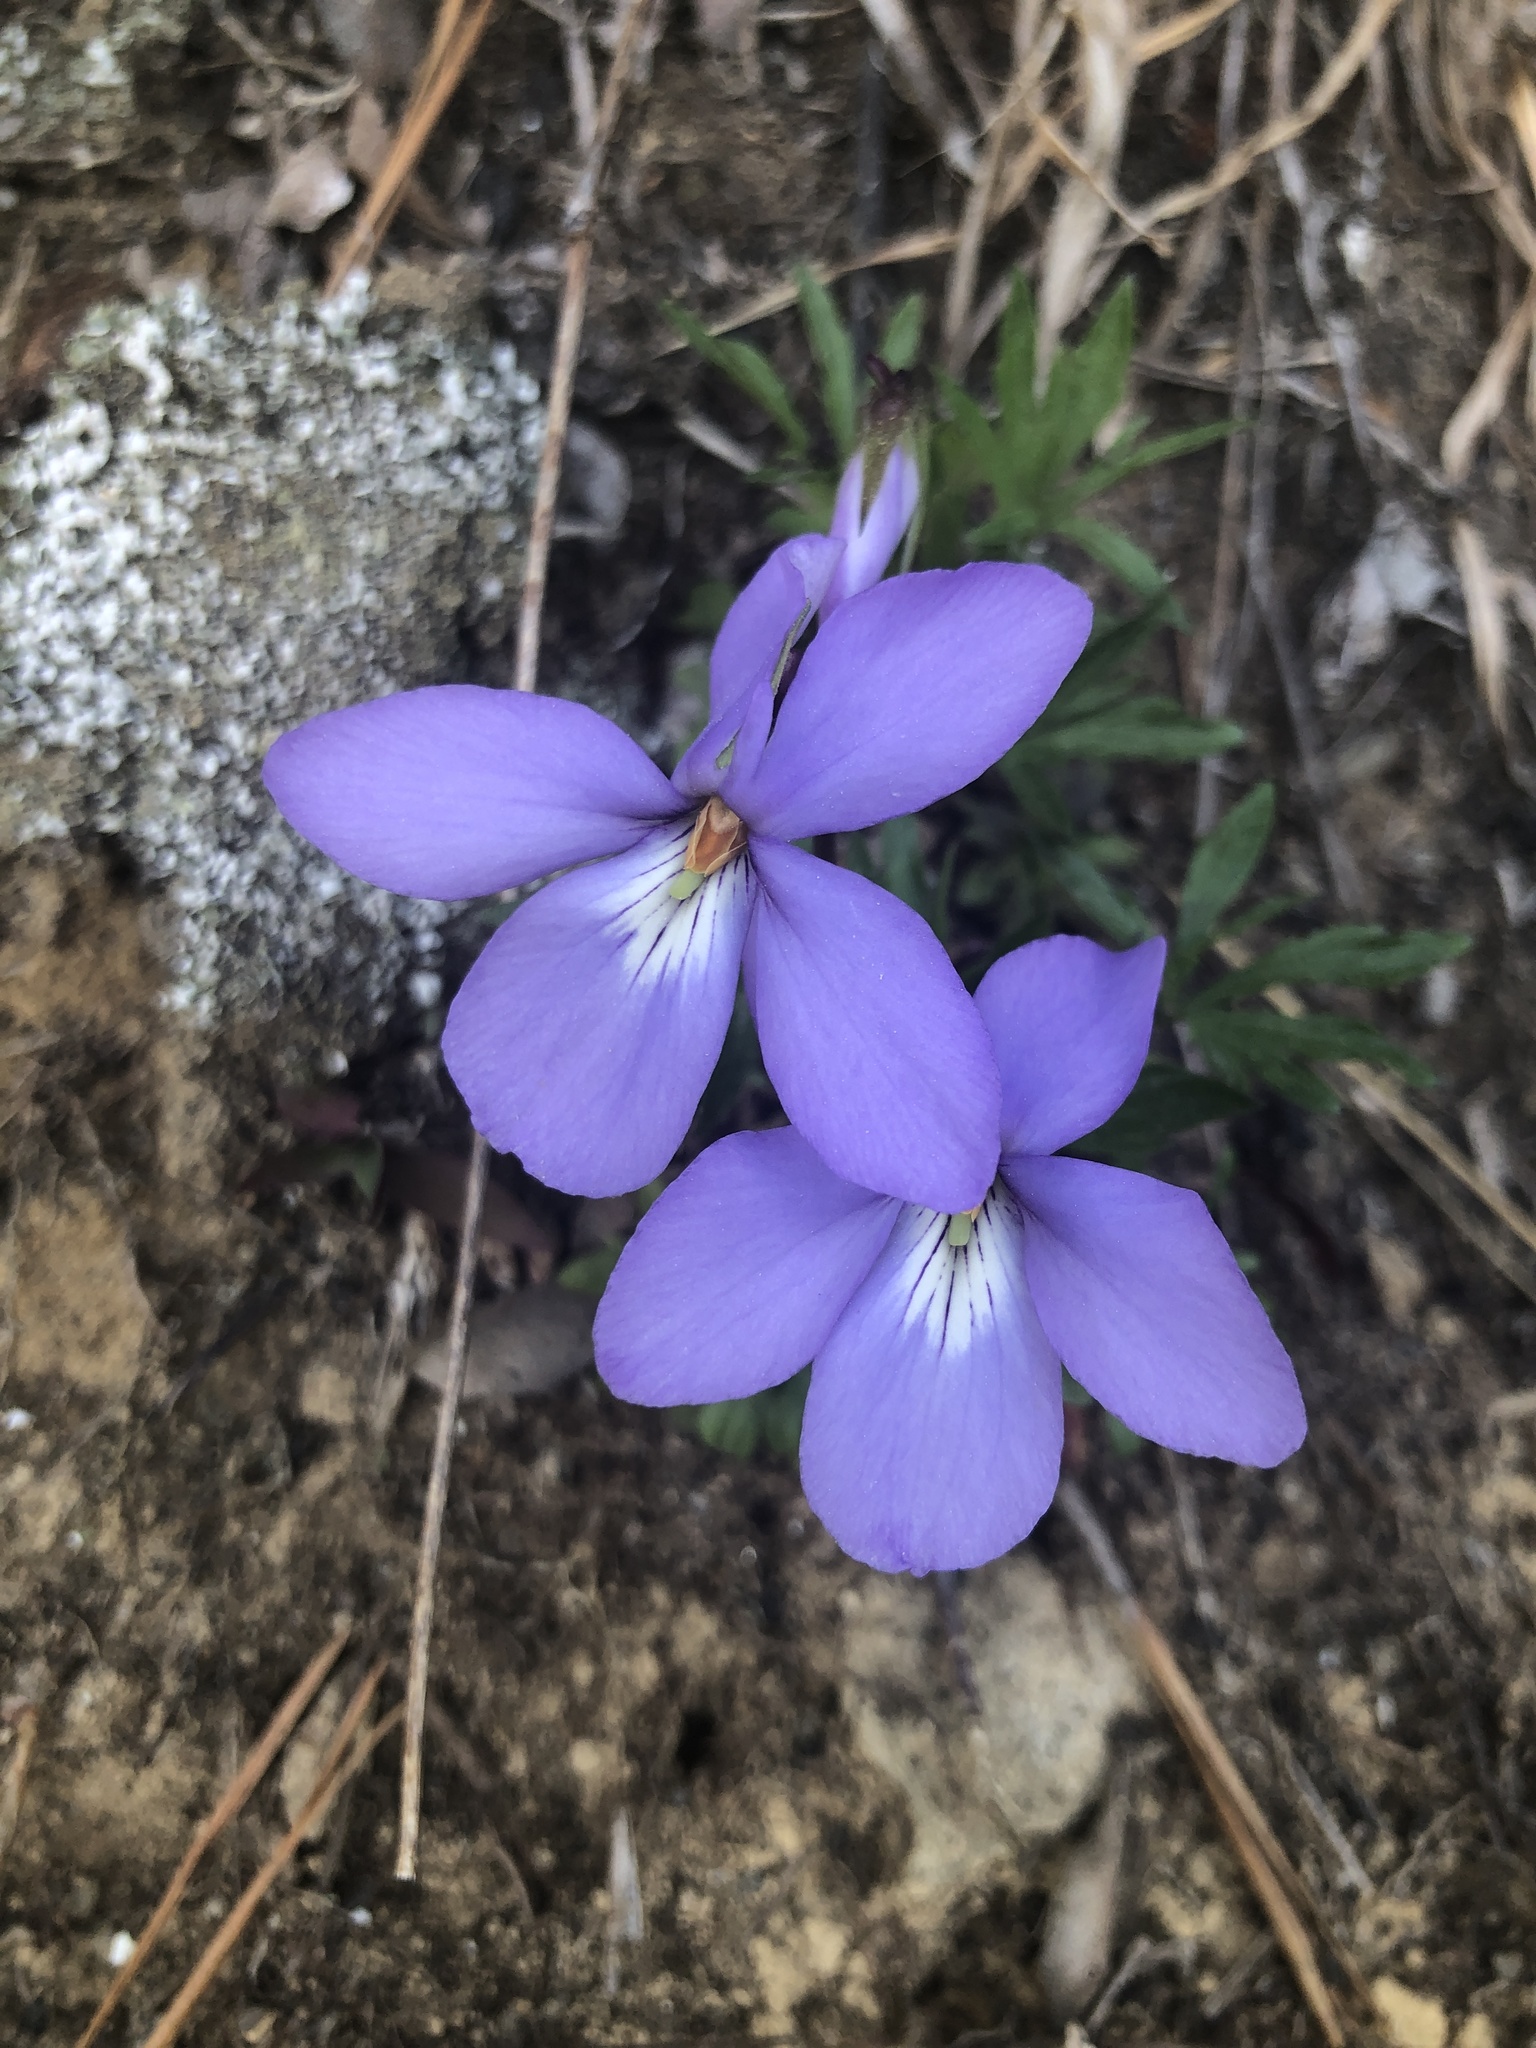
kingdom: Plantae
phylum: Tracheophyta
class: Magnoliopsida
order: Malpighiales
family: Violaceae
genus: Viola
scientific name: Viola pedata
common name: Pansy violet
